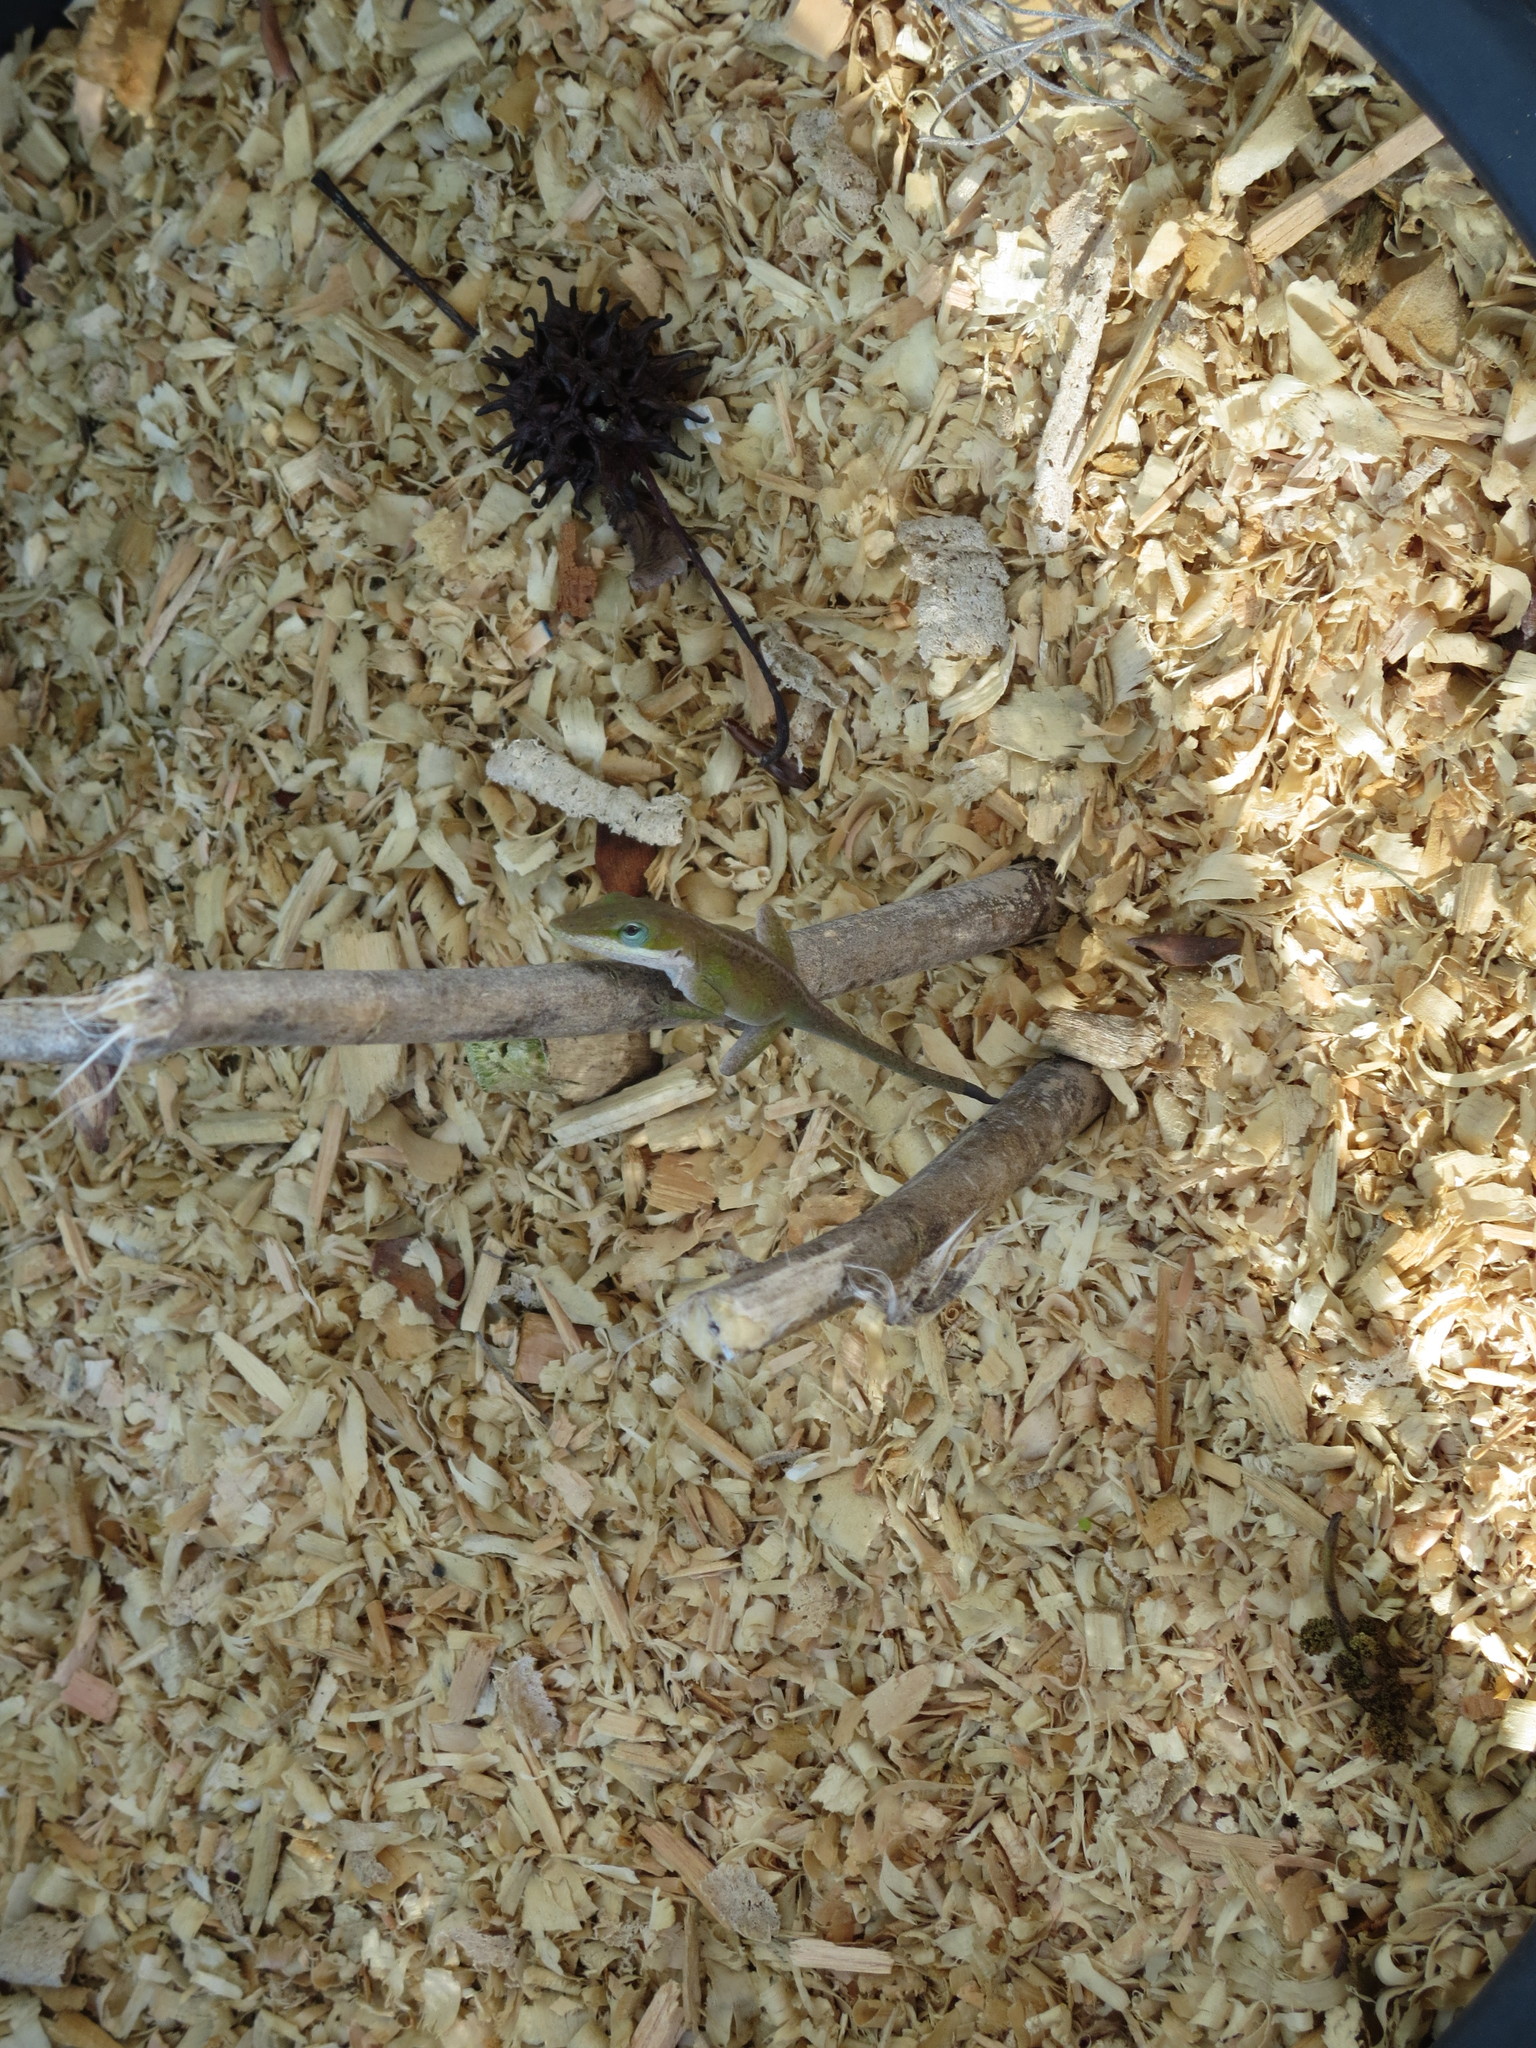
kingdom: Animalia
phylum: Chordata
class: Squamata
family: Dactyloidae
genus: Anolis
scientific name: Anolis carolinensis
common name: Green anole
